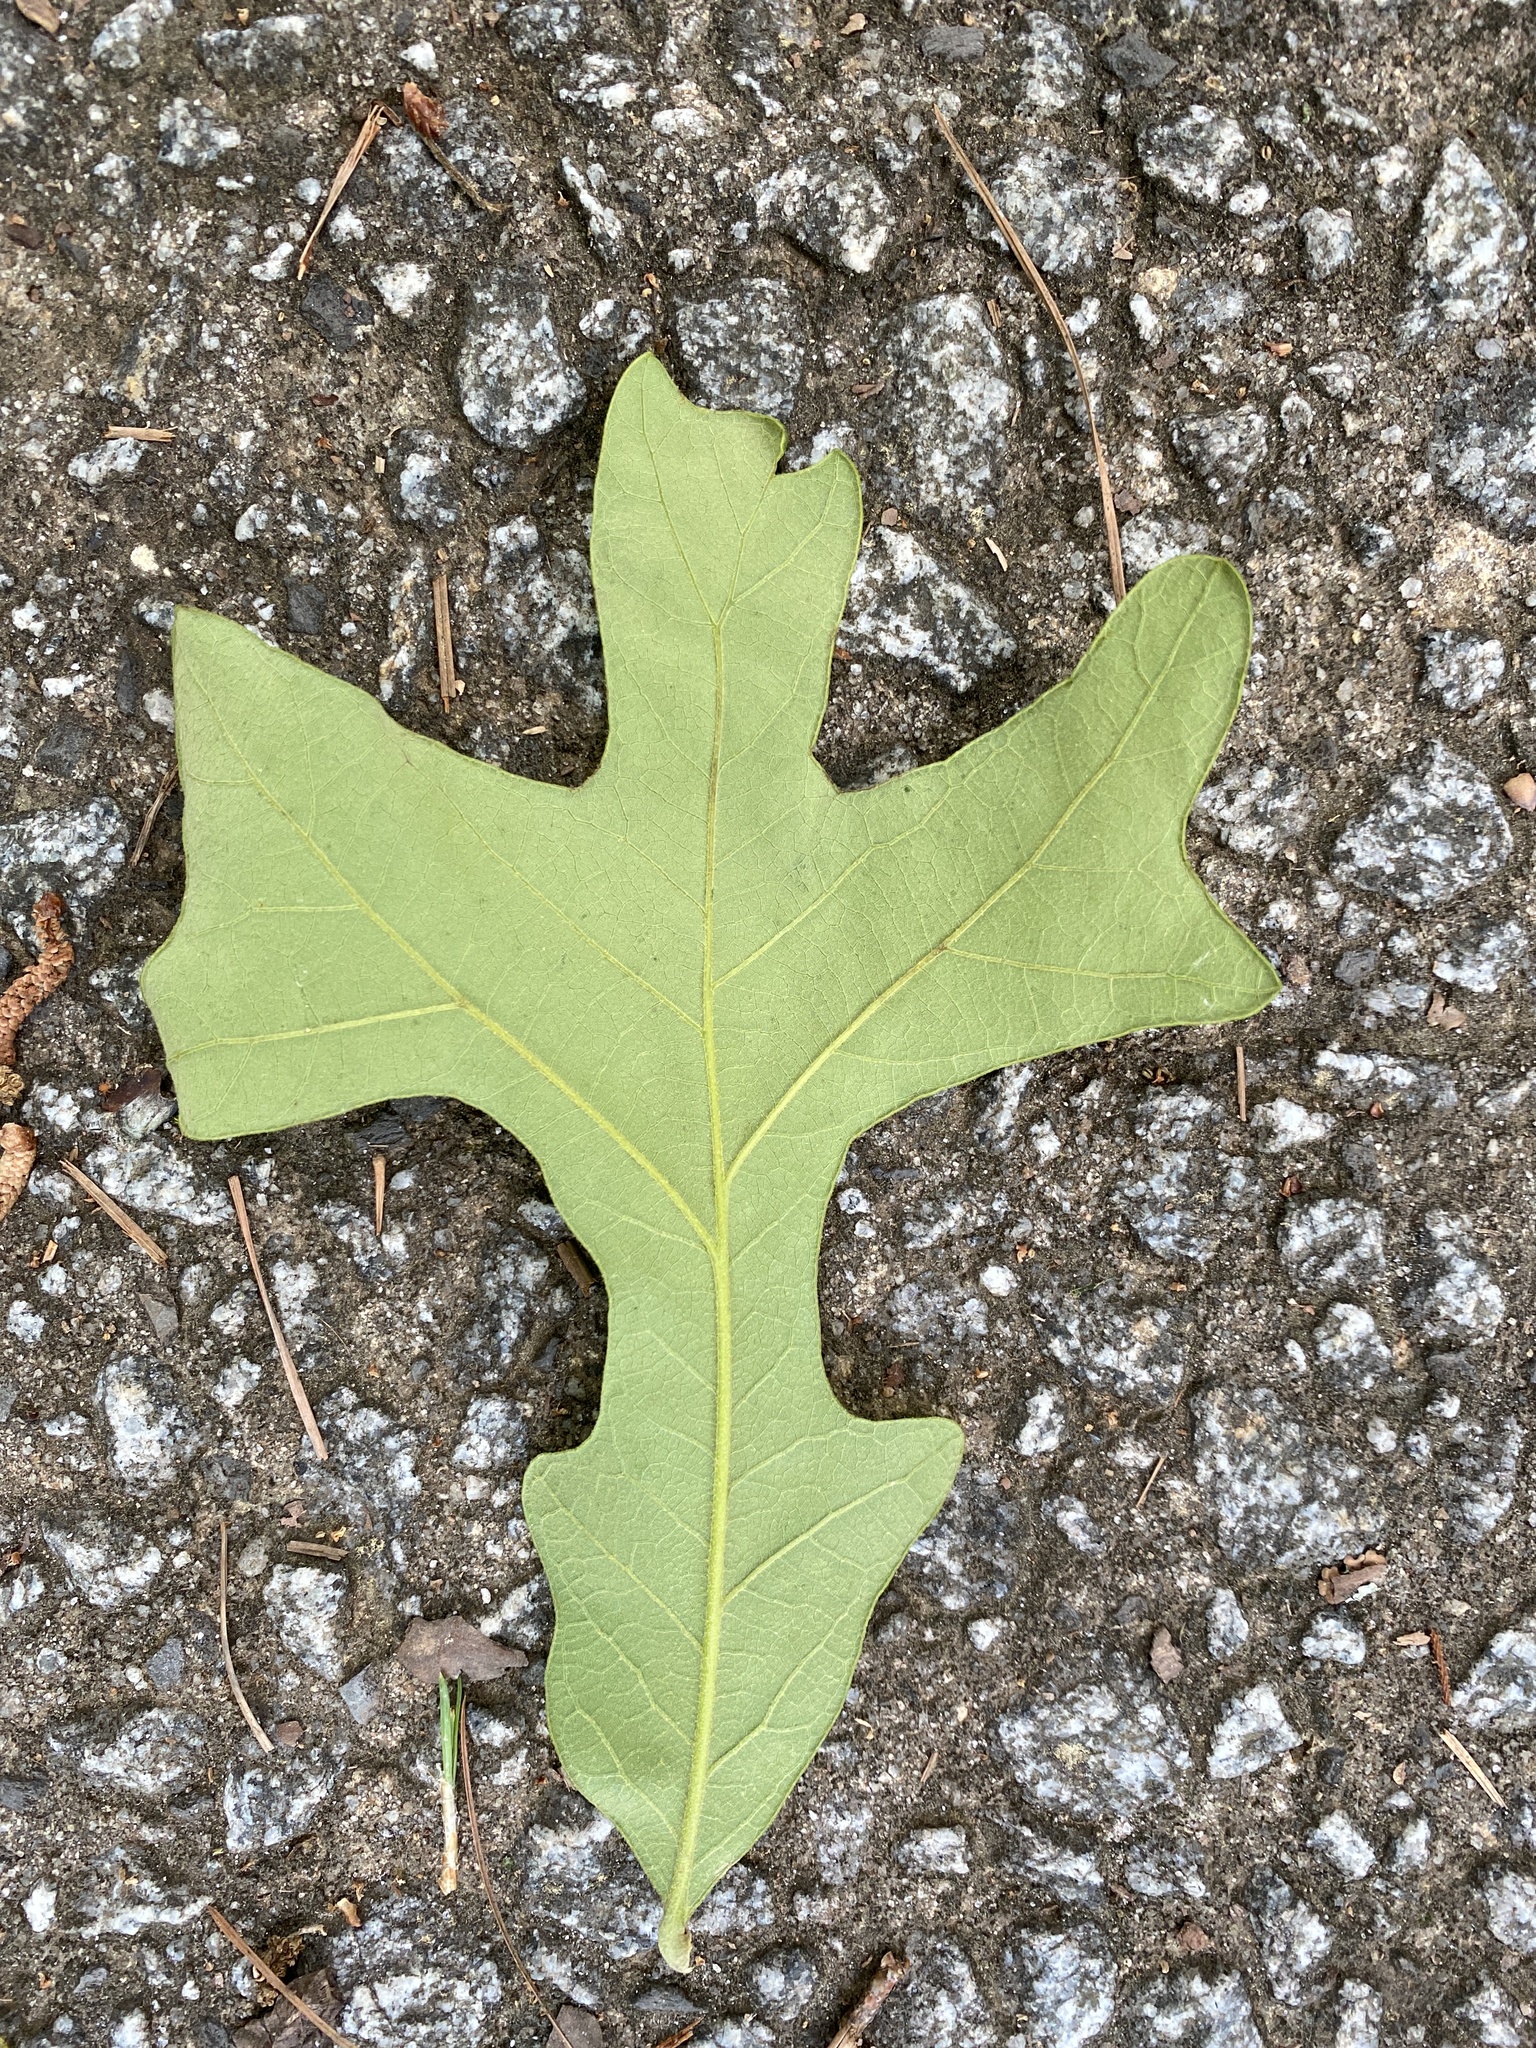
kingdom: Plantae
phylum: Tracheophyta
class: Magnoliopsida
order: Fagales
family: Fagaceae
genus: Quercus
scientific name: Quercus stellata
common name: Post oak
